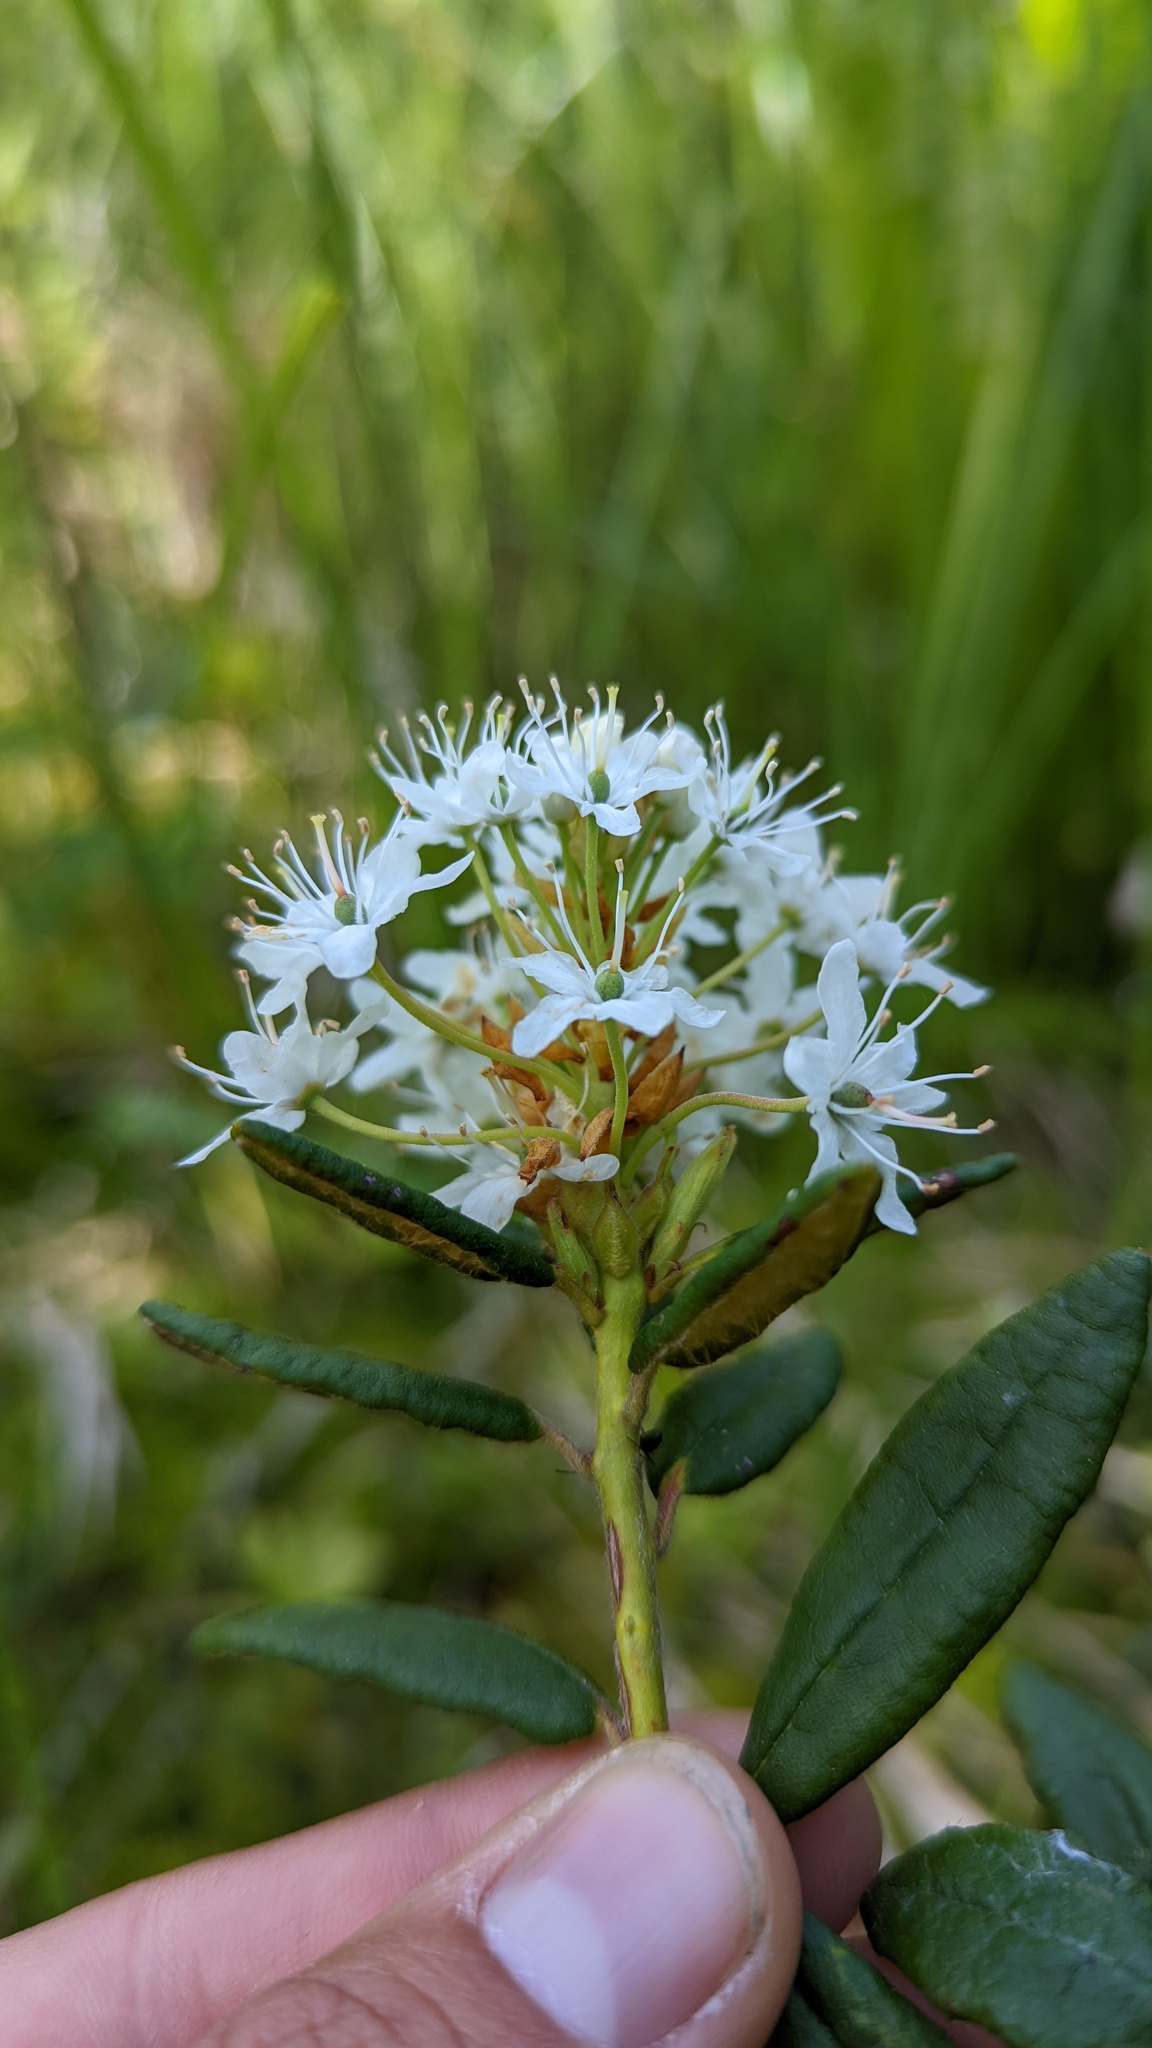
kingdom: Plantae
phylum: Tracheophyta
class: Magnoliopsida
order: Ericales
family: Ericaceae
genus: Rhododendron
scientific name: Rhododendron groenlandicum
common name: Bog labrador tea
